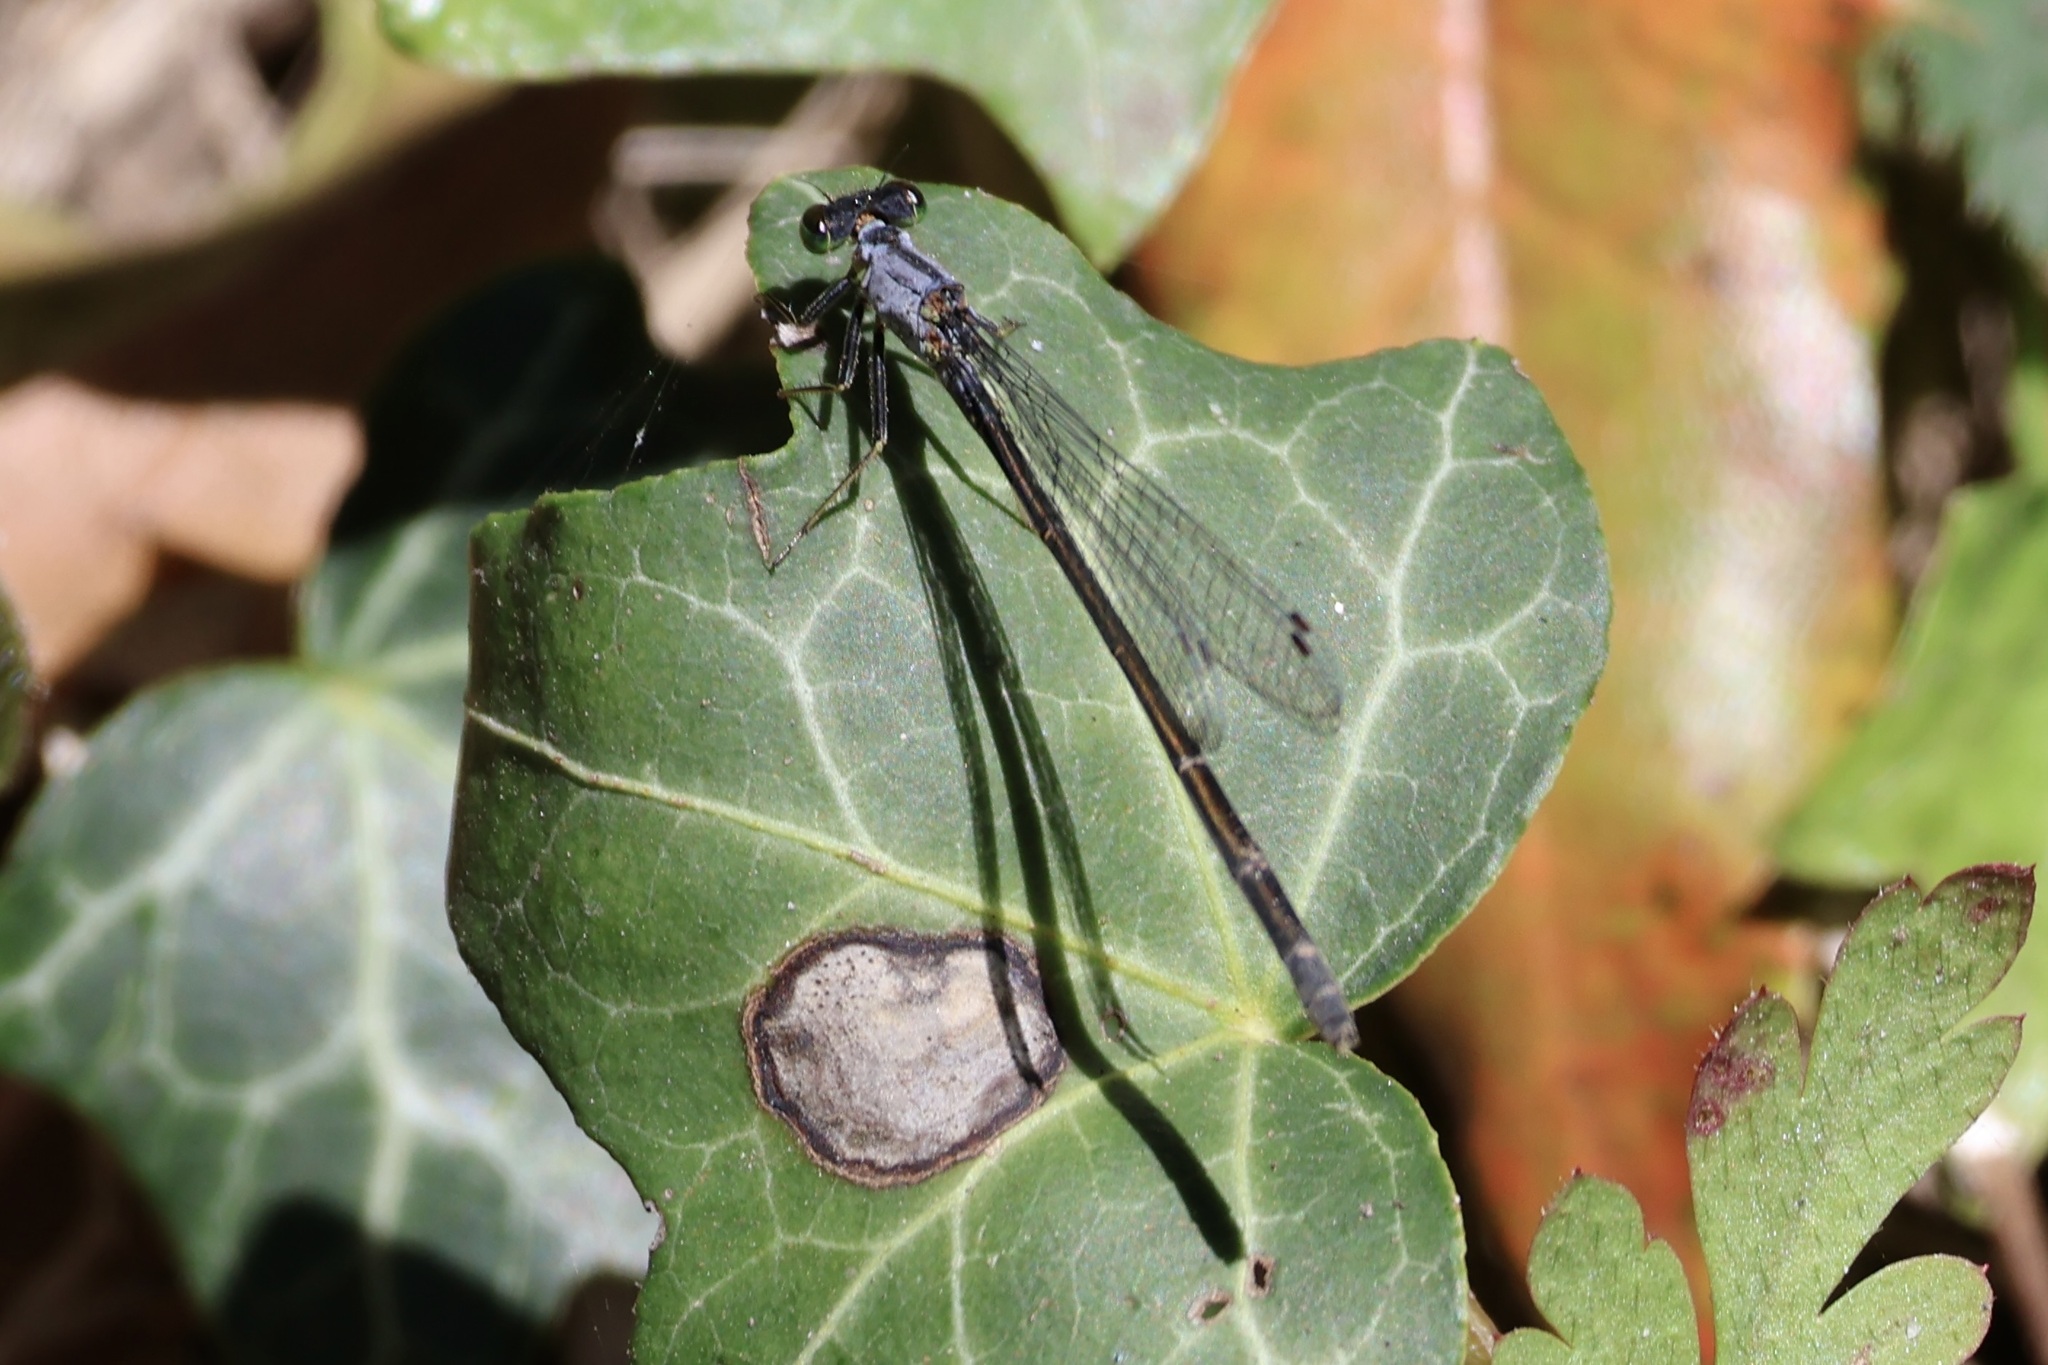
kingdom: Animalia
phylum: Arthropoda
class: Insecta
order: Odonata
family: Coenagrionidae
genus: Ischnura
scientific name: Ischnura cervula
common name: Pacific forktail
